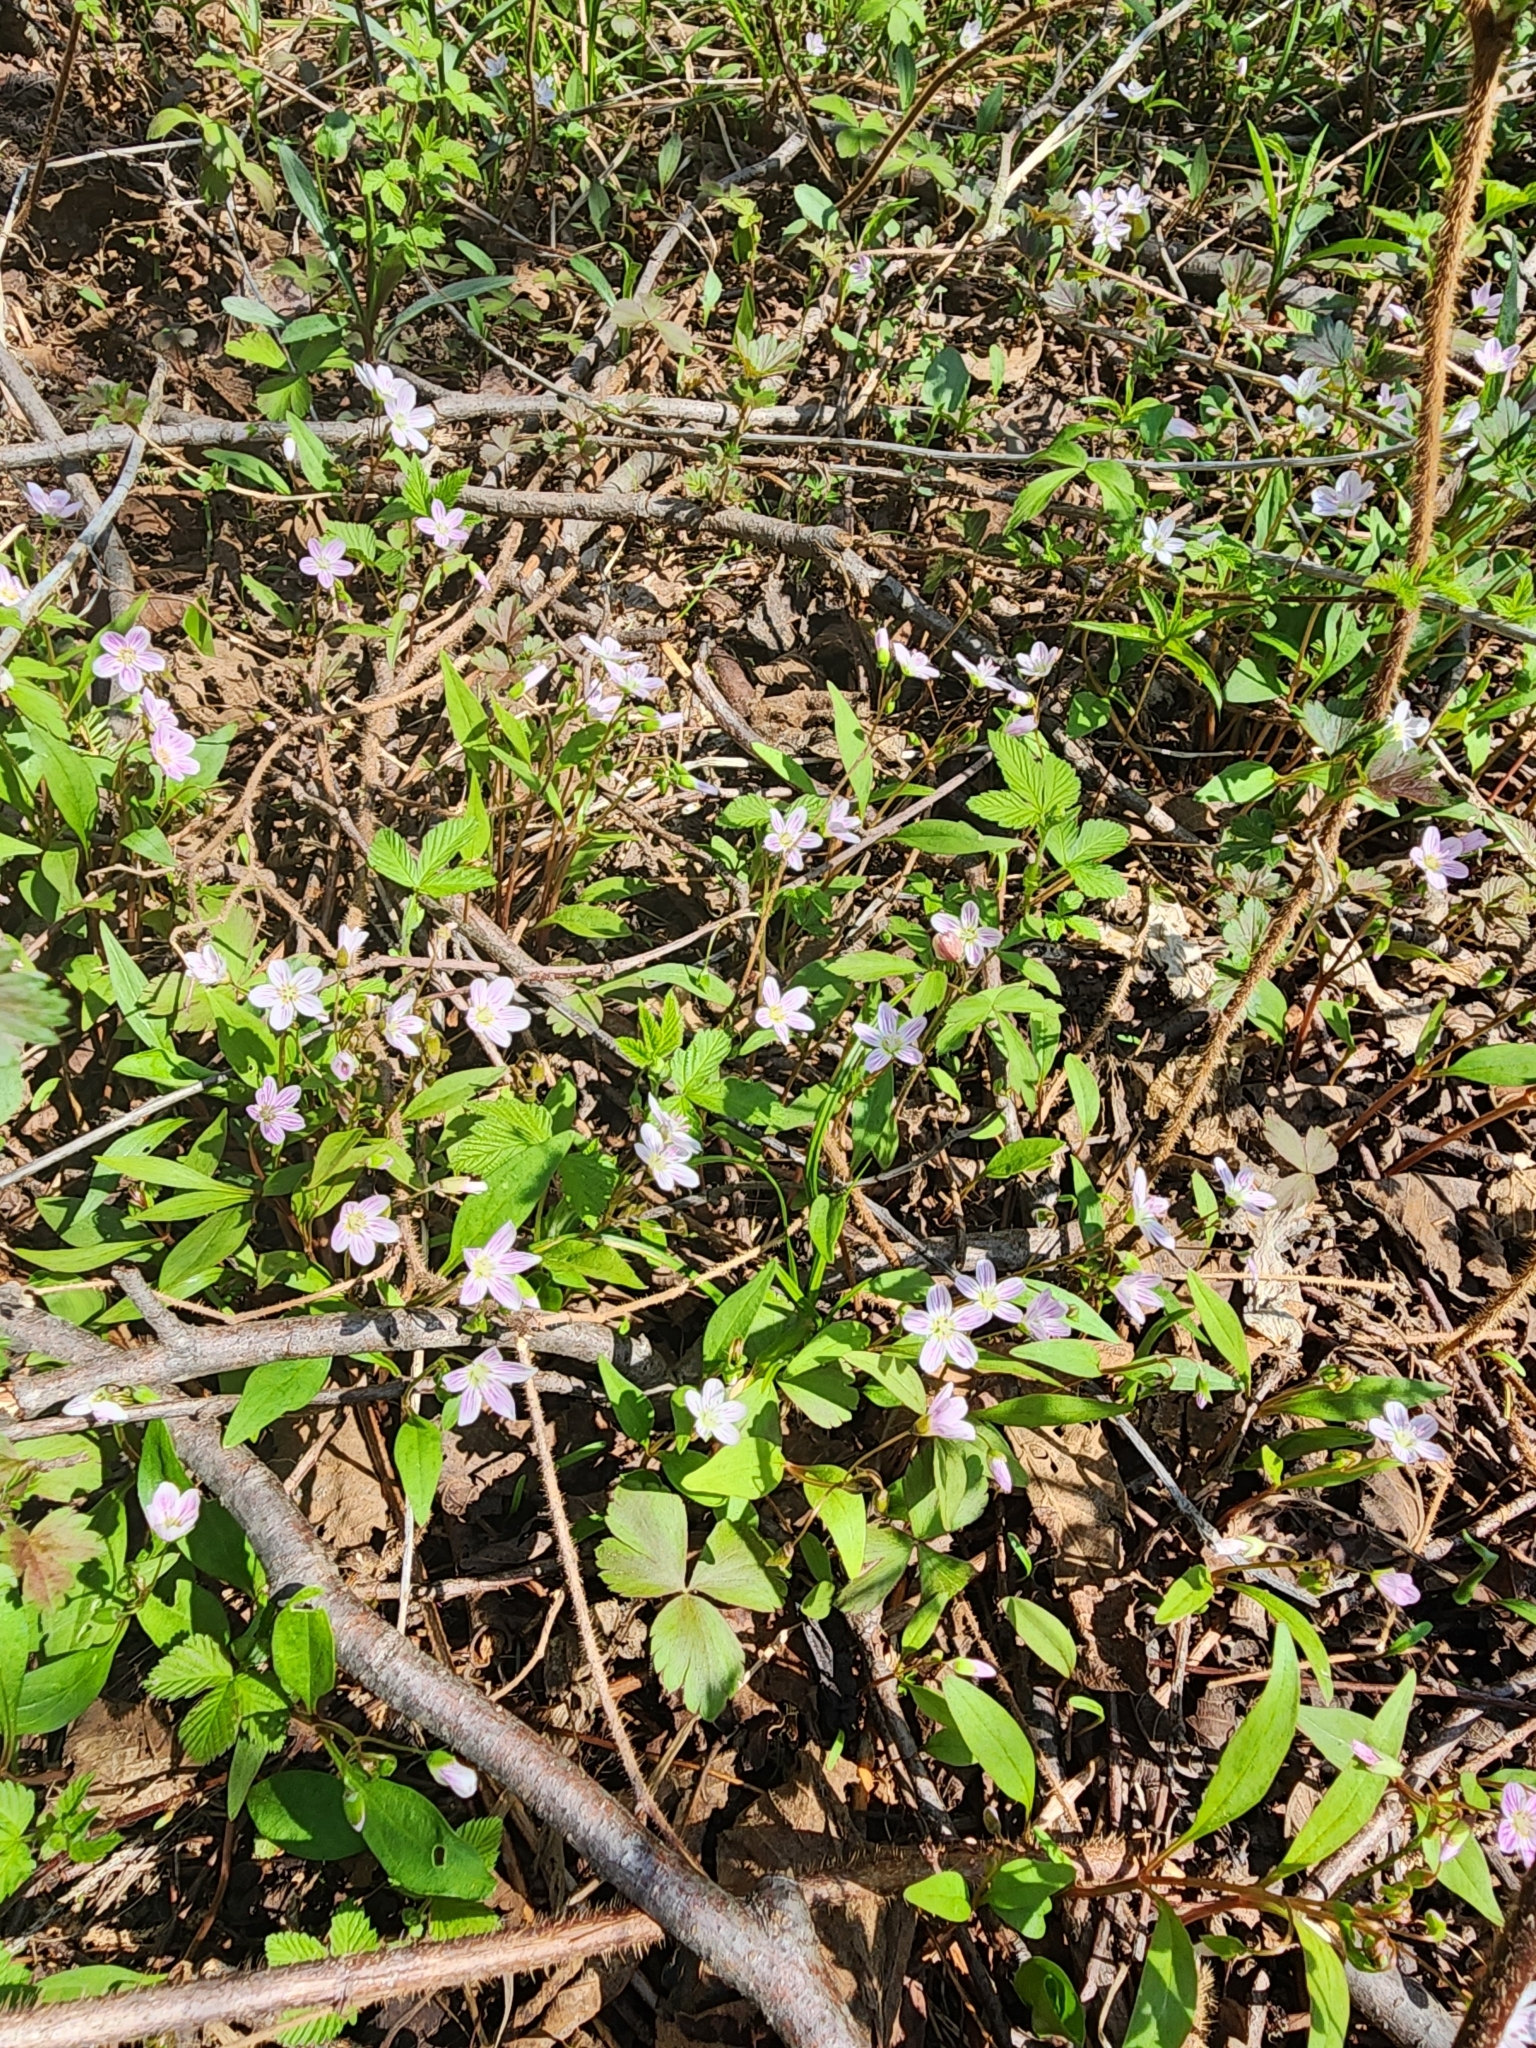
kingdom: Plantae
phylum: Tracheophyta
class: Magnoliopsida
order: Caryophyllales
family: Montiaceae
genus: Claytonia
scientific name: Claytonia caroliniana
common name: Carolina spring beauty
